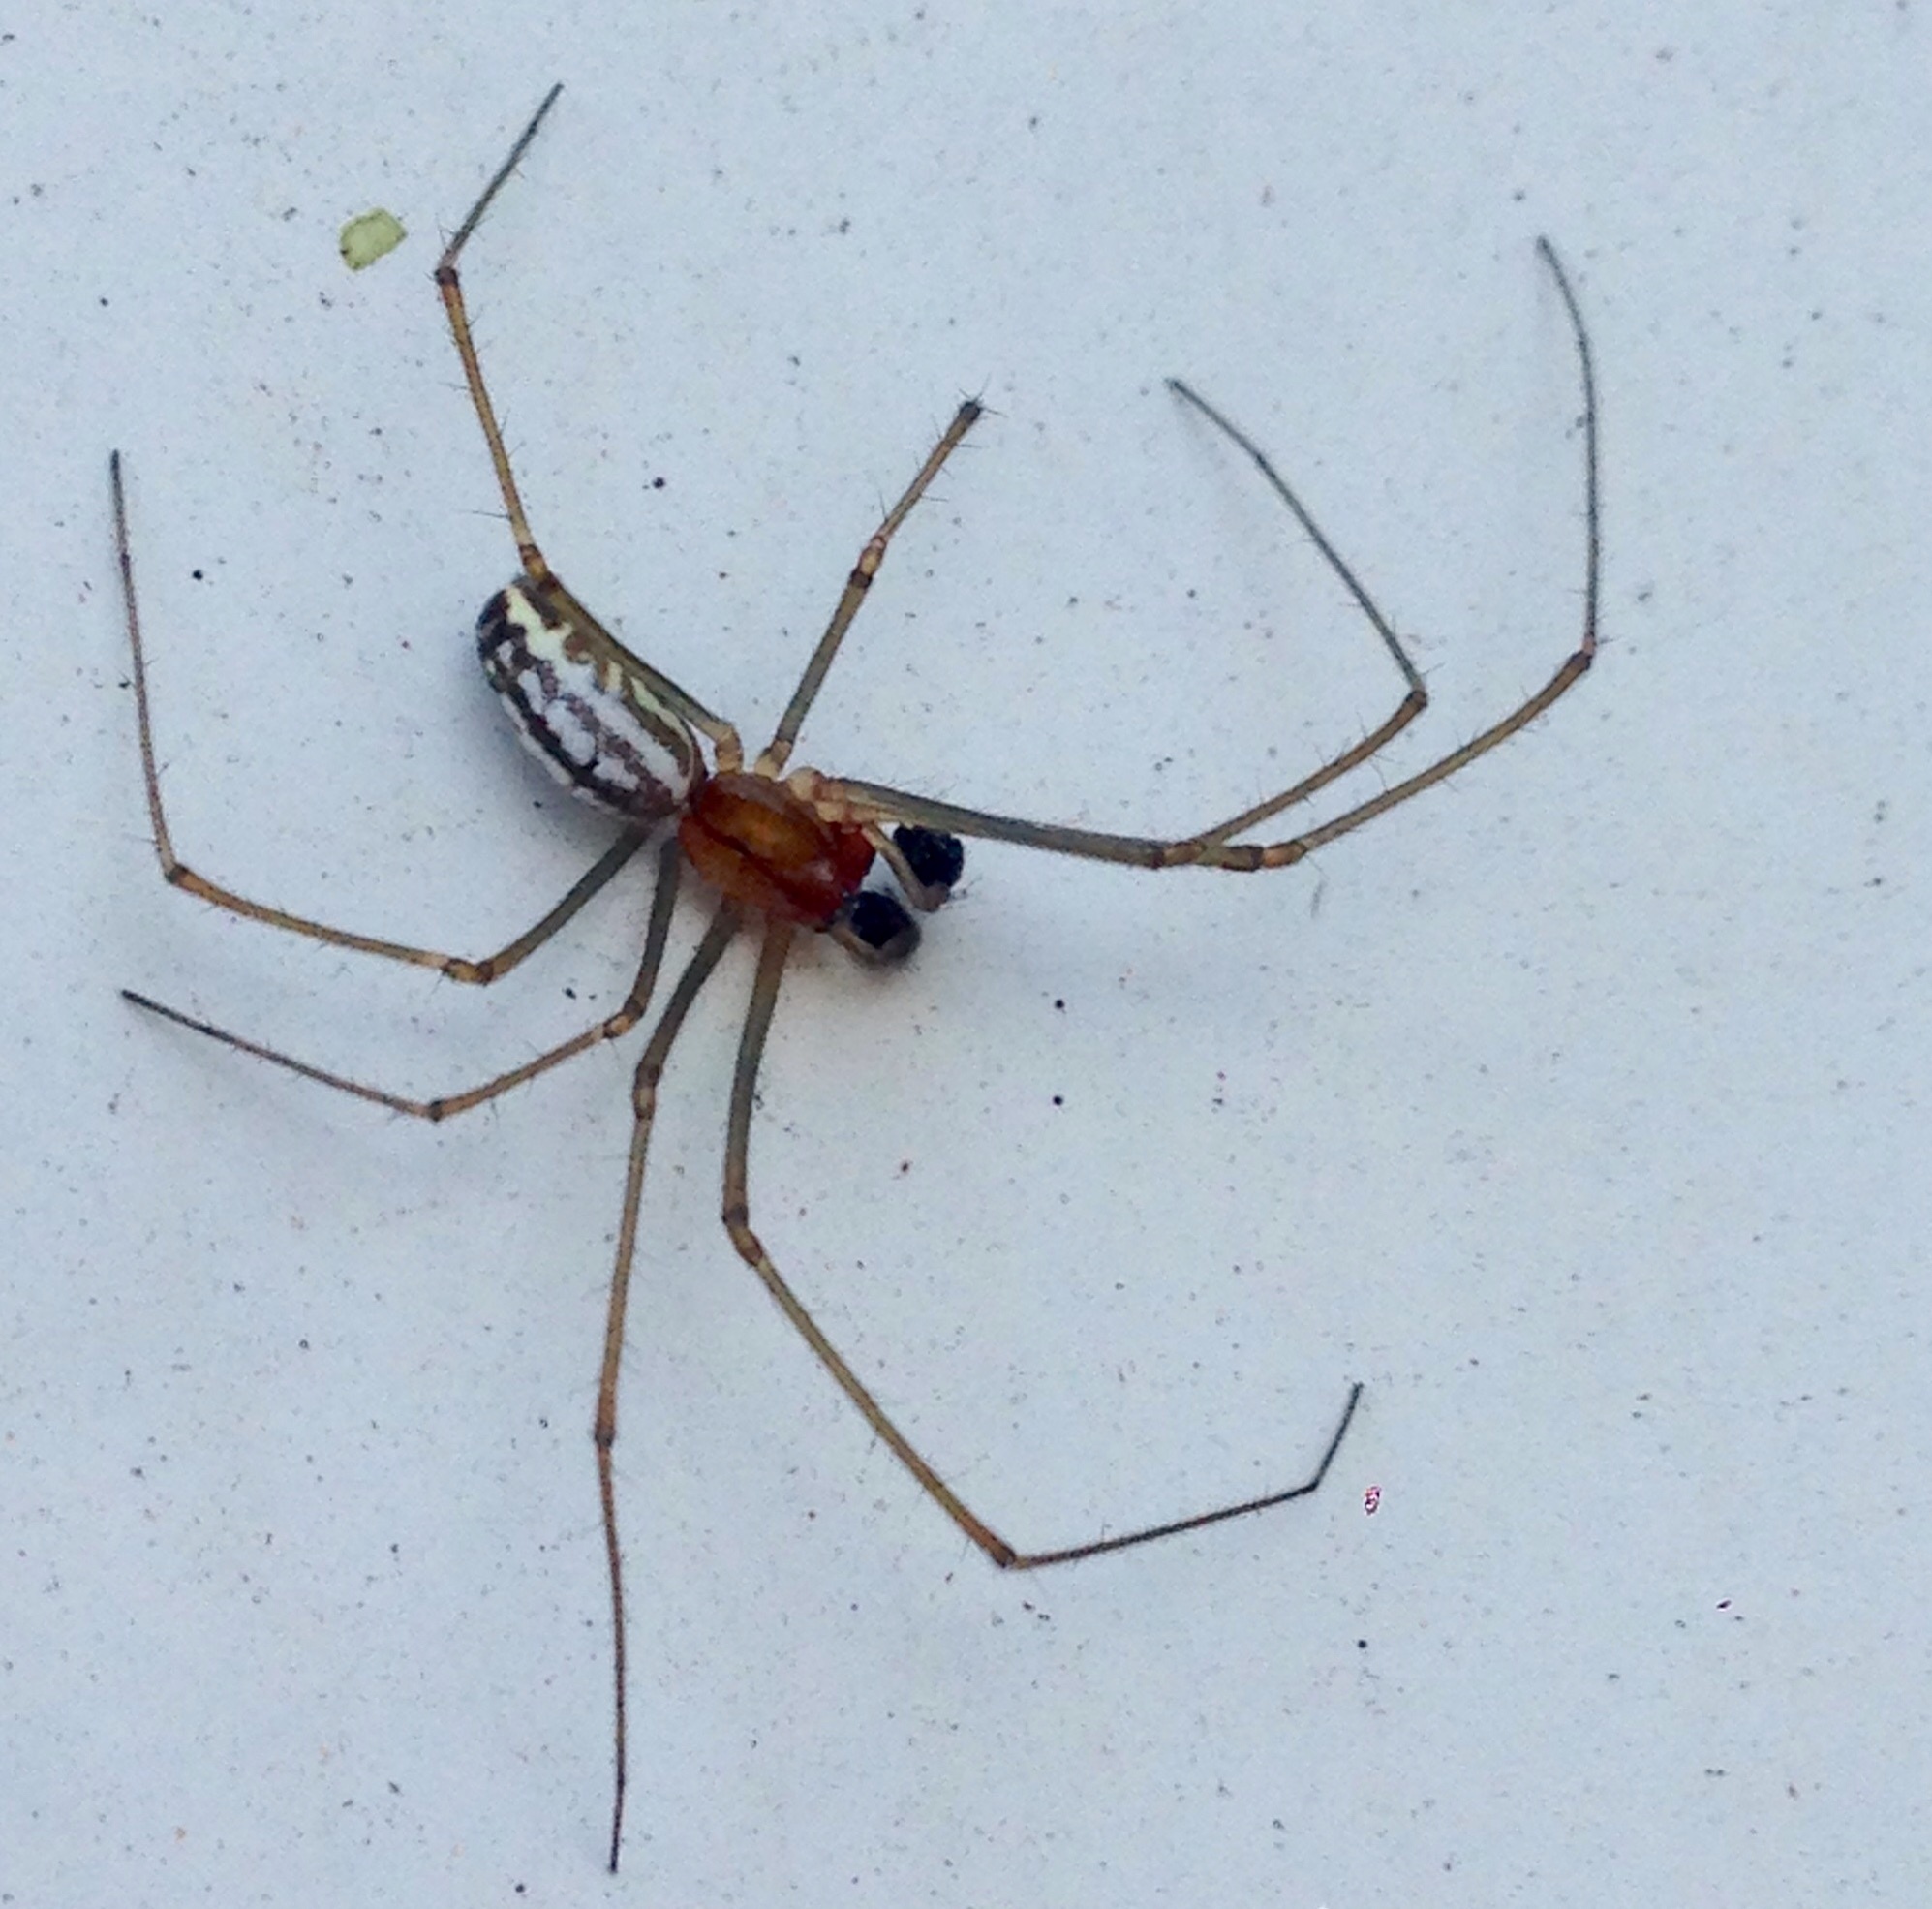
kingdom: Animalia
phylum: Arthropoda
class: Arachnida
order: Araneae
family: Linyphiidae
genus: Neriene
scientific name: Neriene litigiosa
